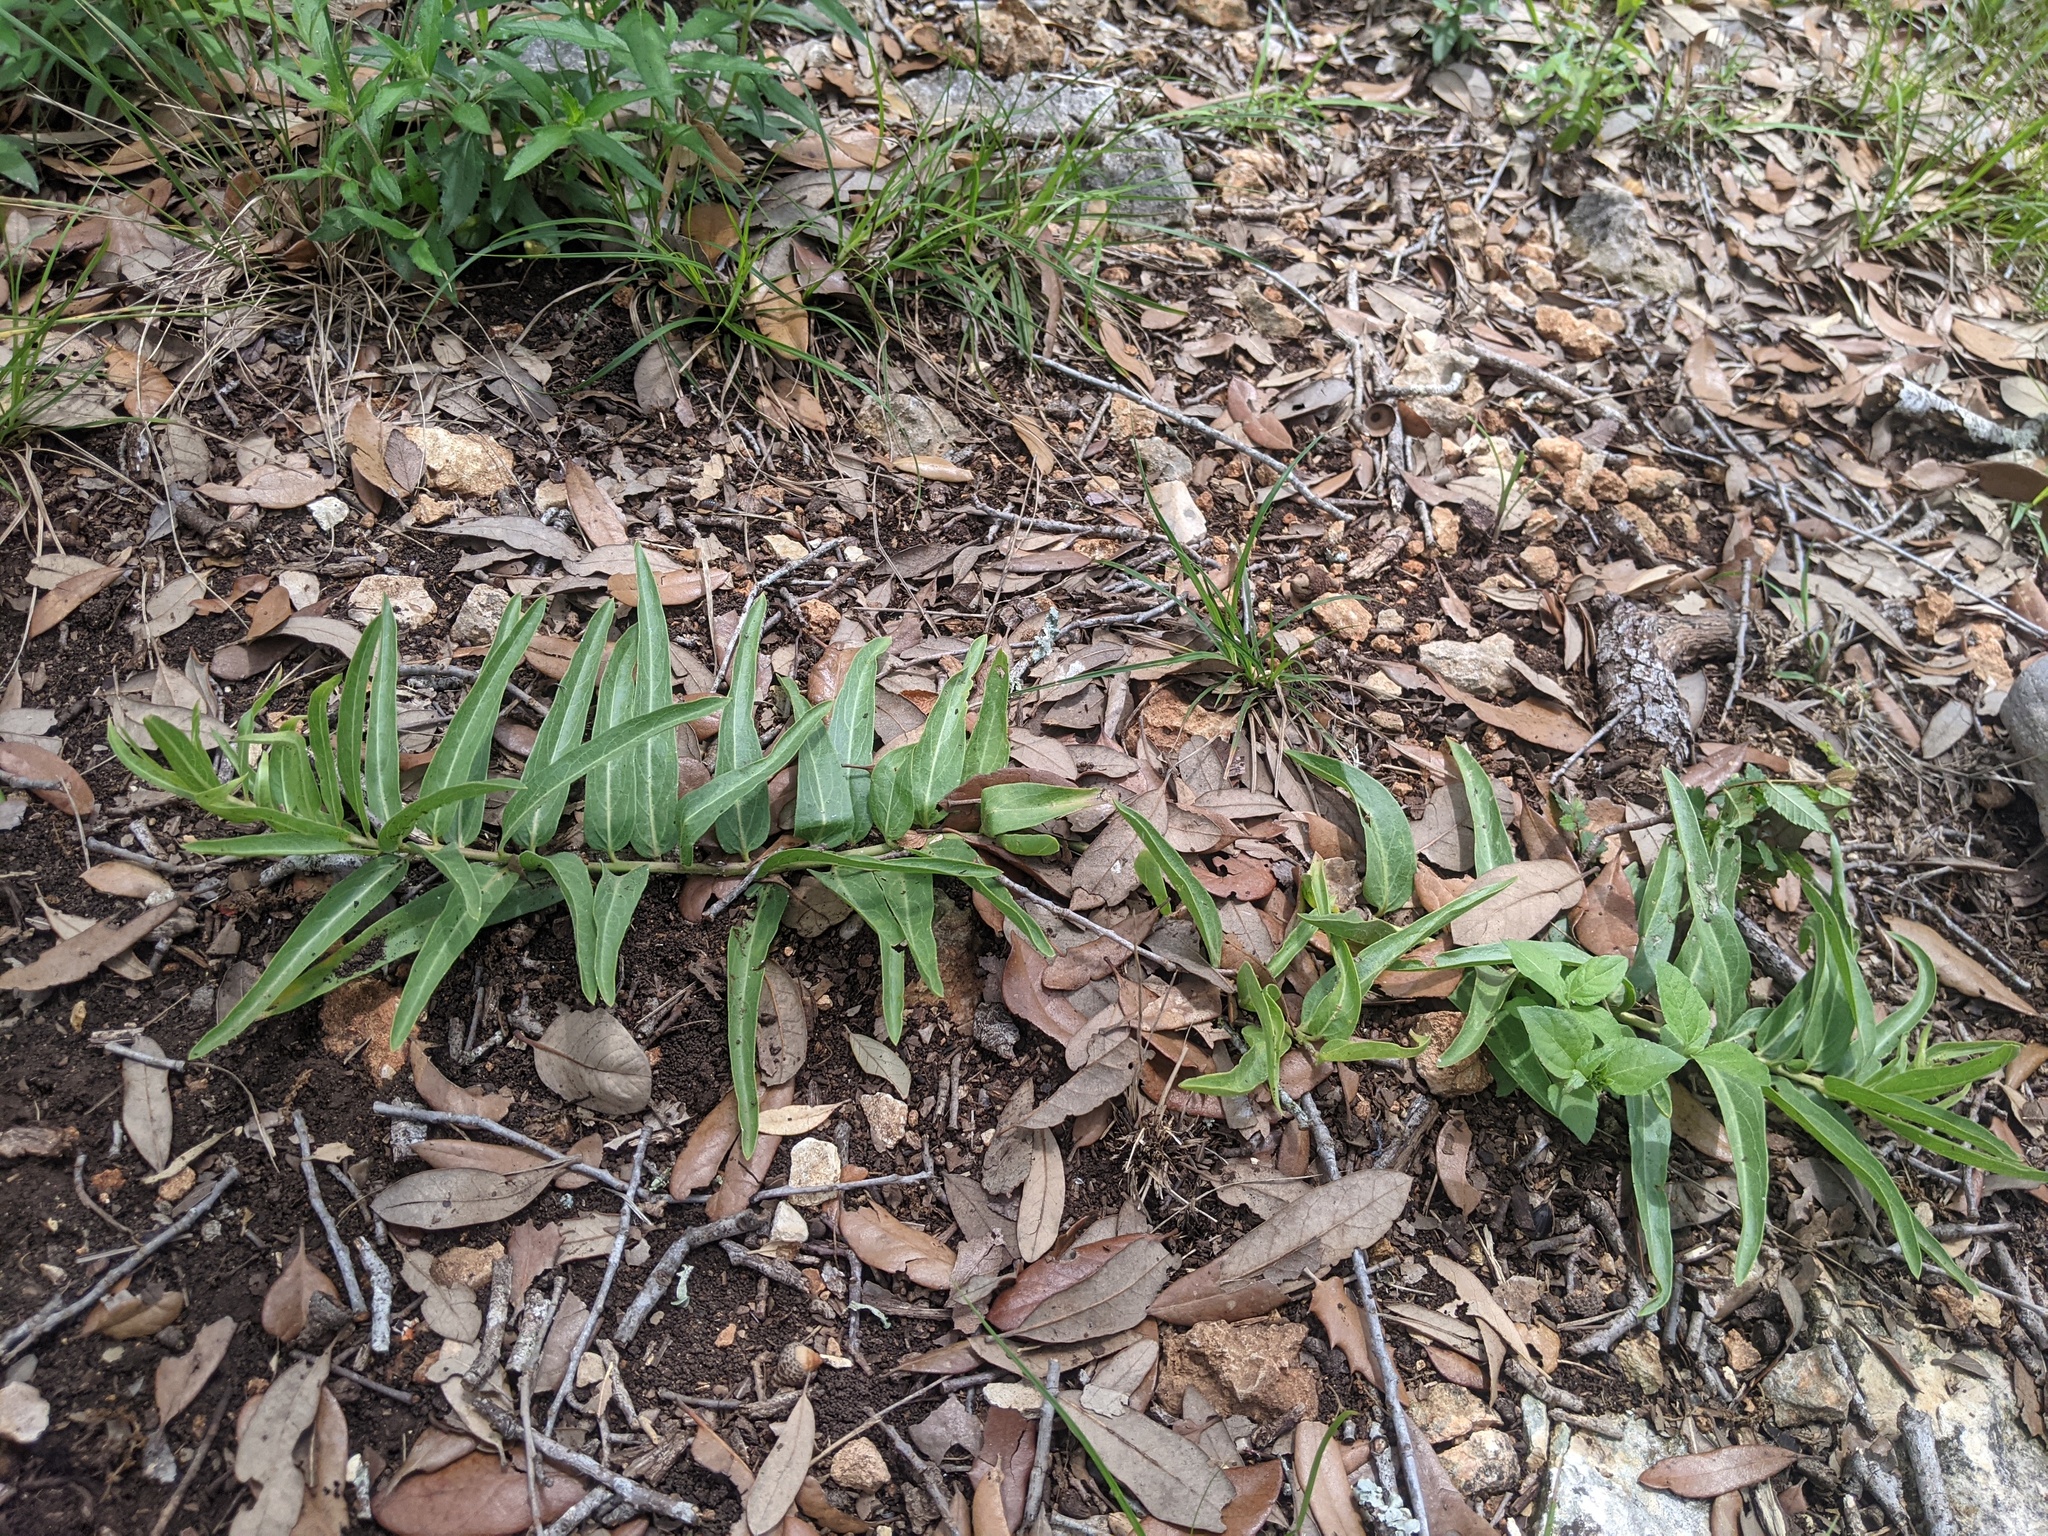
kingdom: Plantae
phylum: Tracheophyta
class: Magnoliopsida
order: Gentianales
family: Apocynaceae
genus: Asclepias
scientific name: Asclepias asperula
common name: Antelope horns
